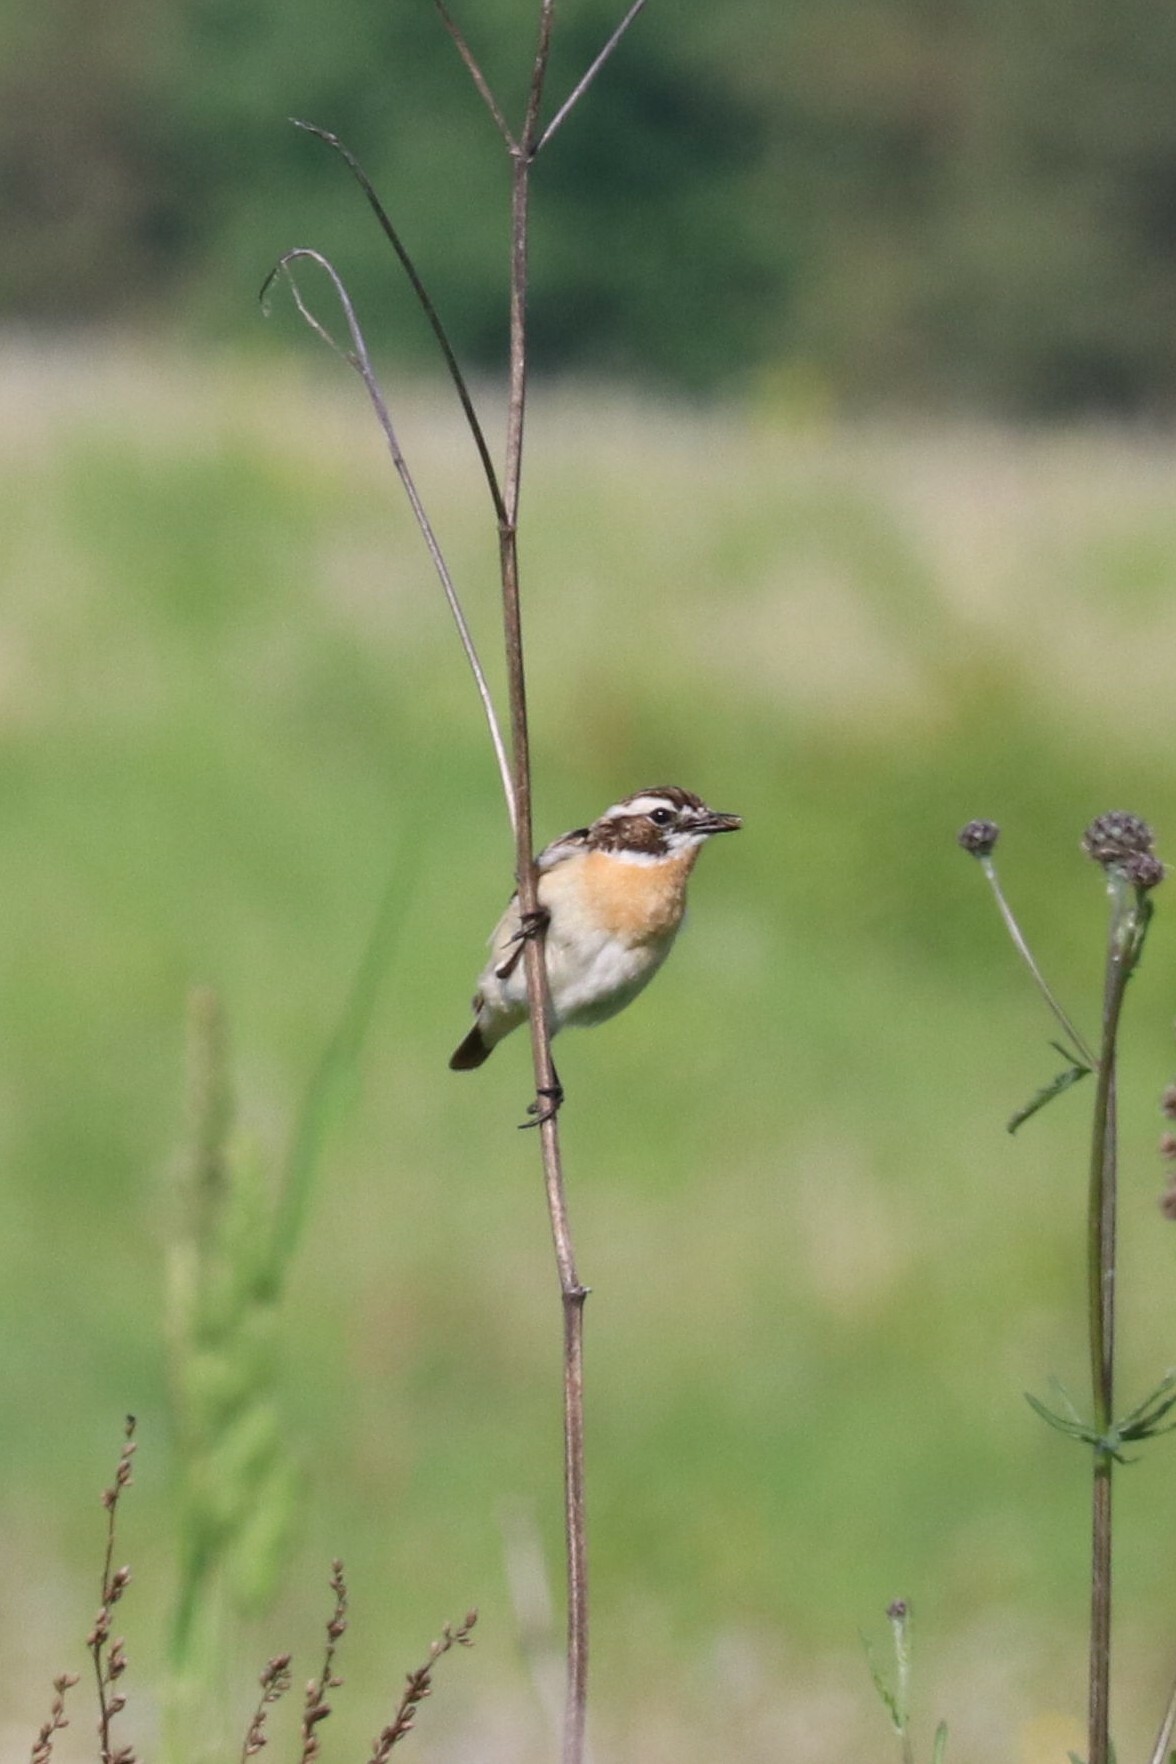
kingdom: Animalia
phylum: Chordata
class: Aves
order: Passeriformes
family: Muscicapidae
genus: Saxicola
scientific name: Saxicola rubetra
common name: Whinchat
